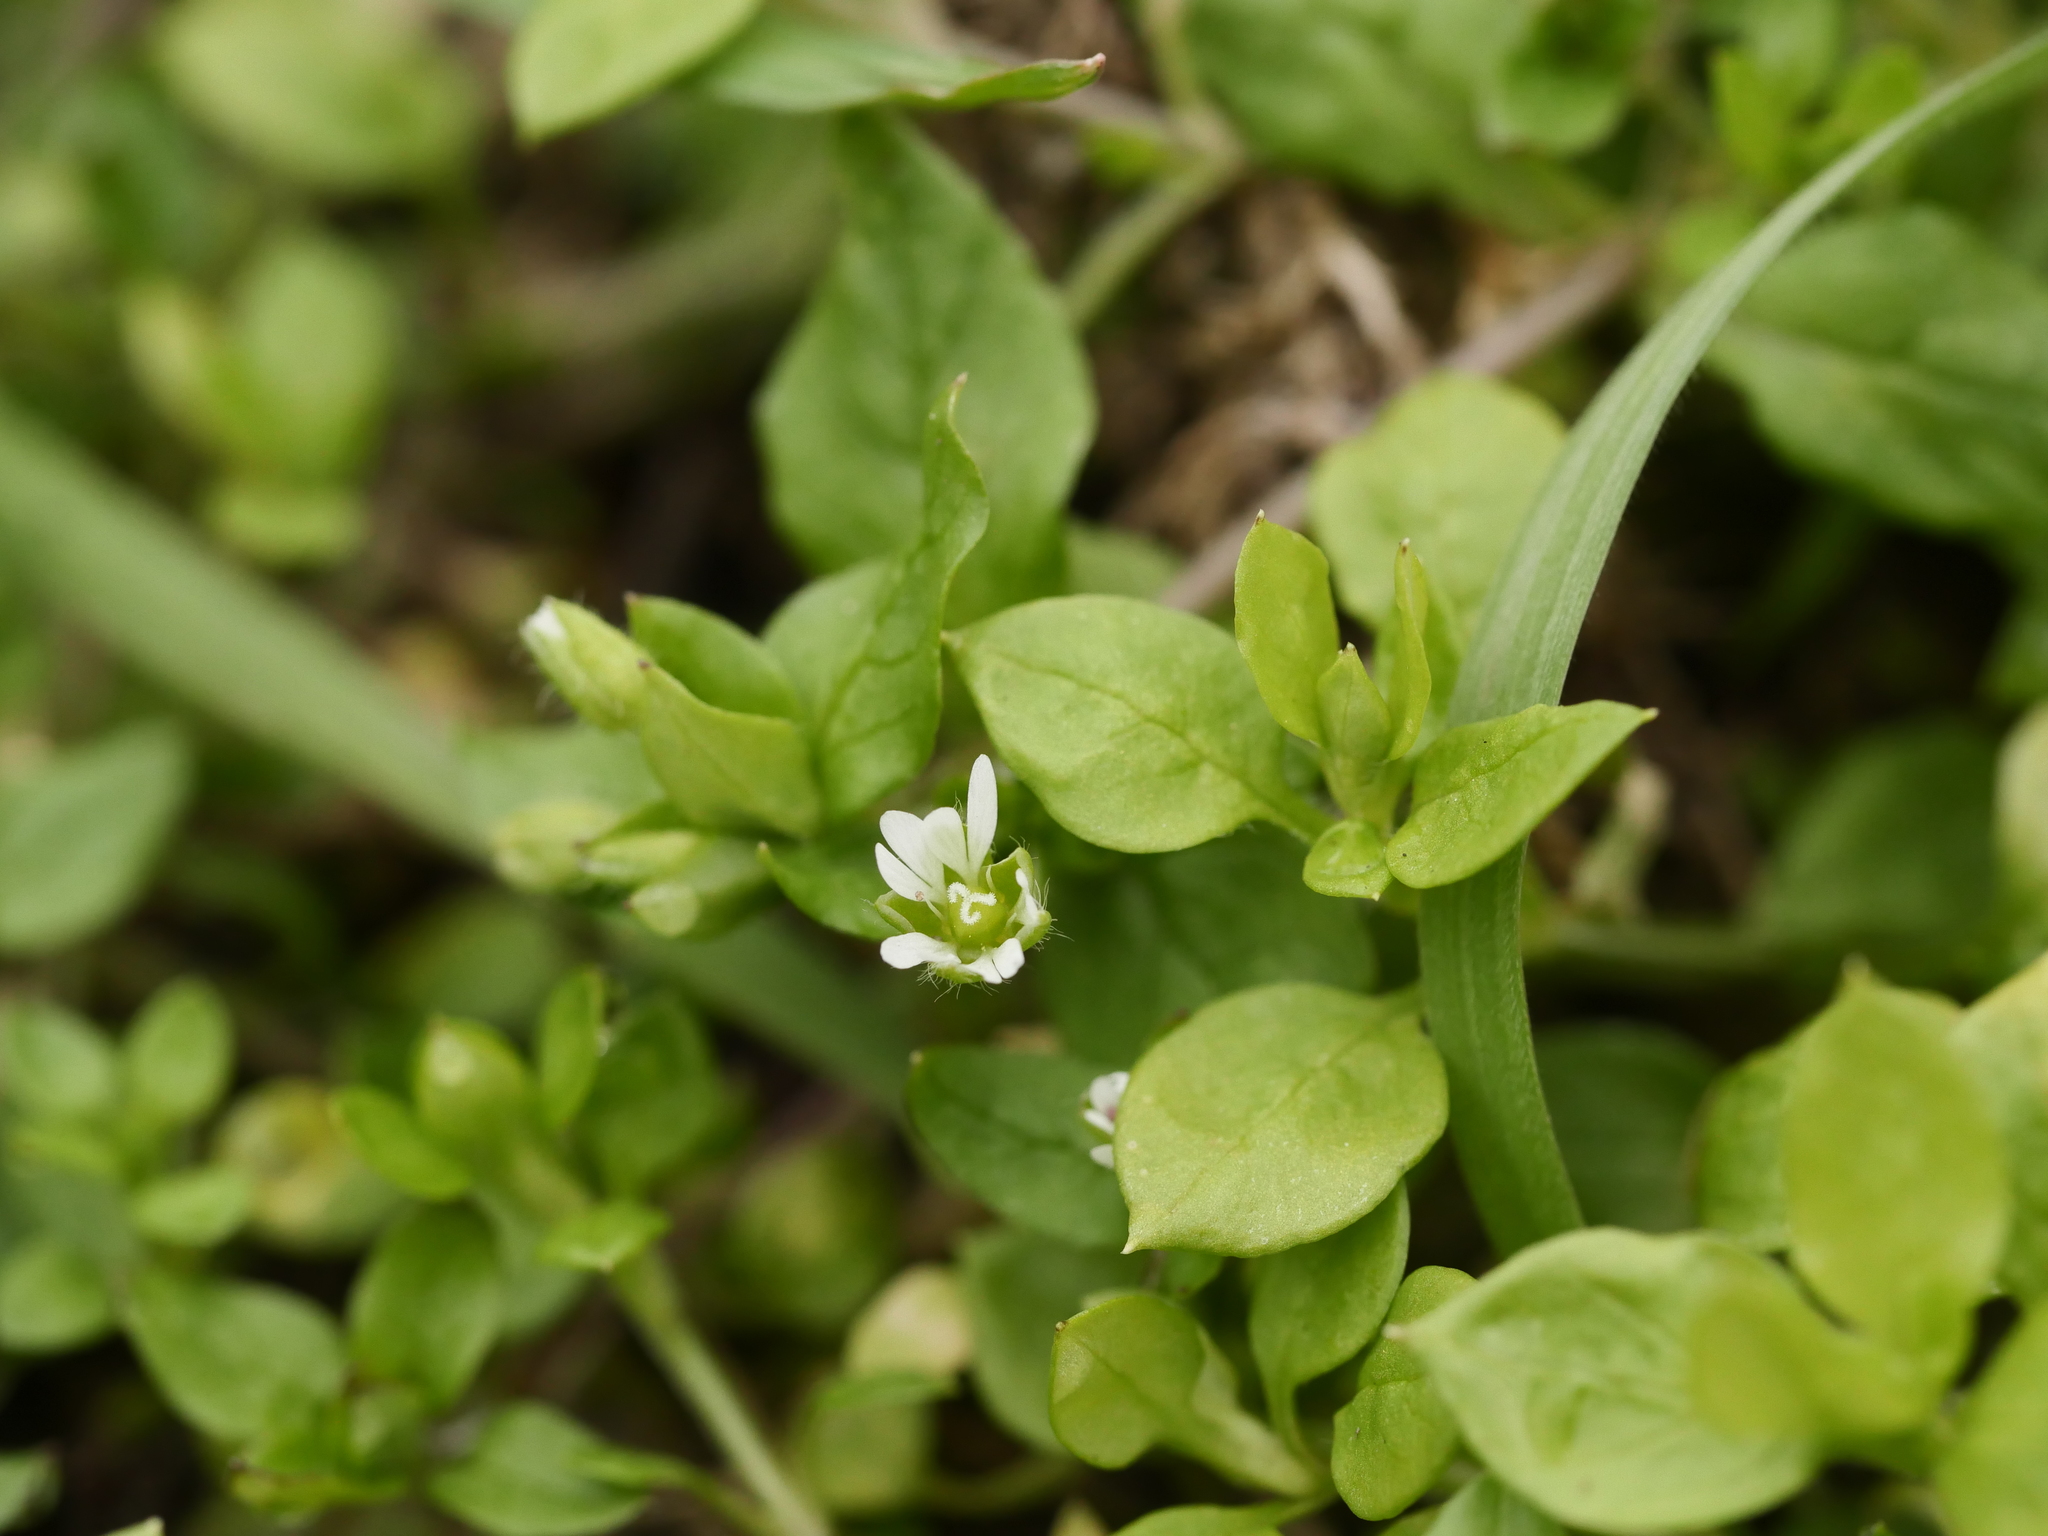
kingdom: Plantae
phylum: Tracheophyta
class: Magnoliopsida
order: Caryophyllales
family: Caryophyllaceae
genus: Stellaria
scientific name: Stellaria media
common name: Common chickweed
